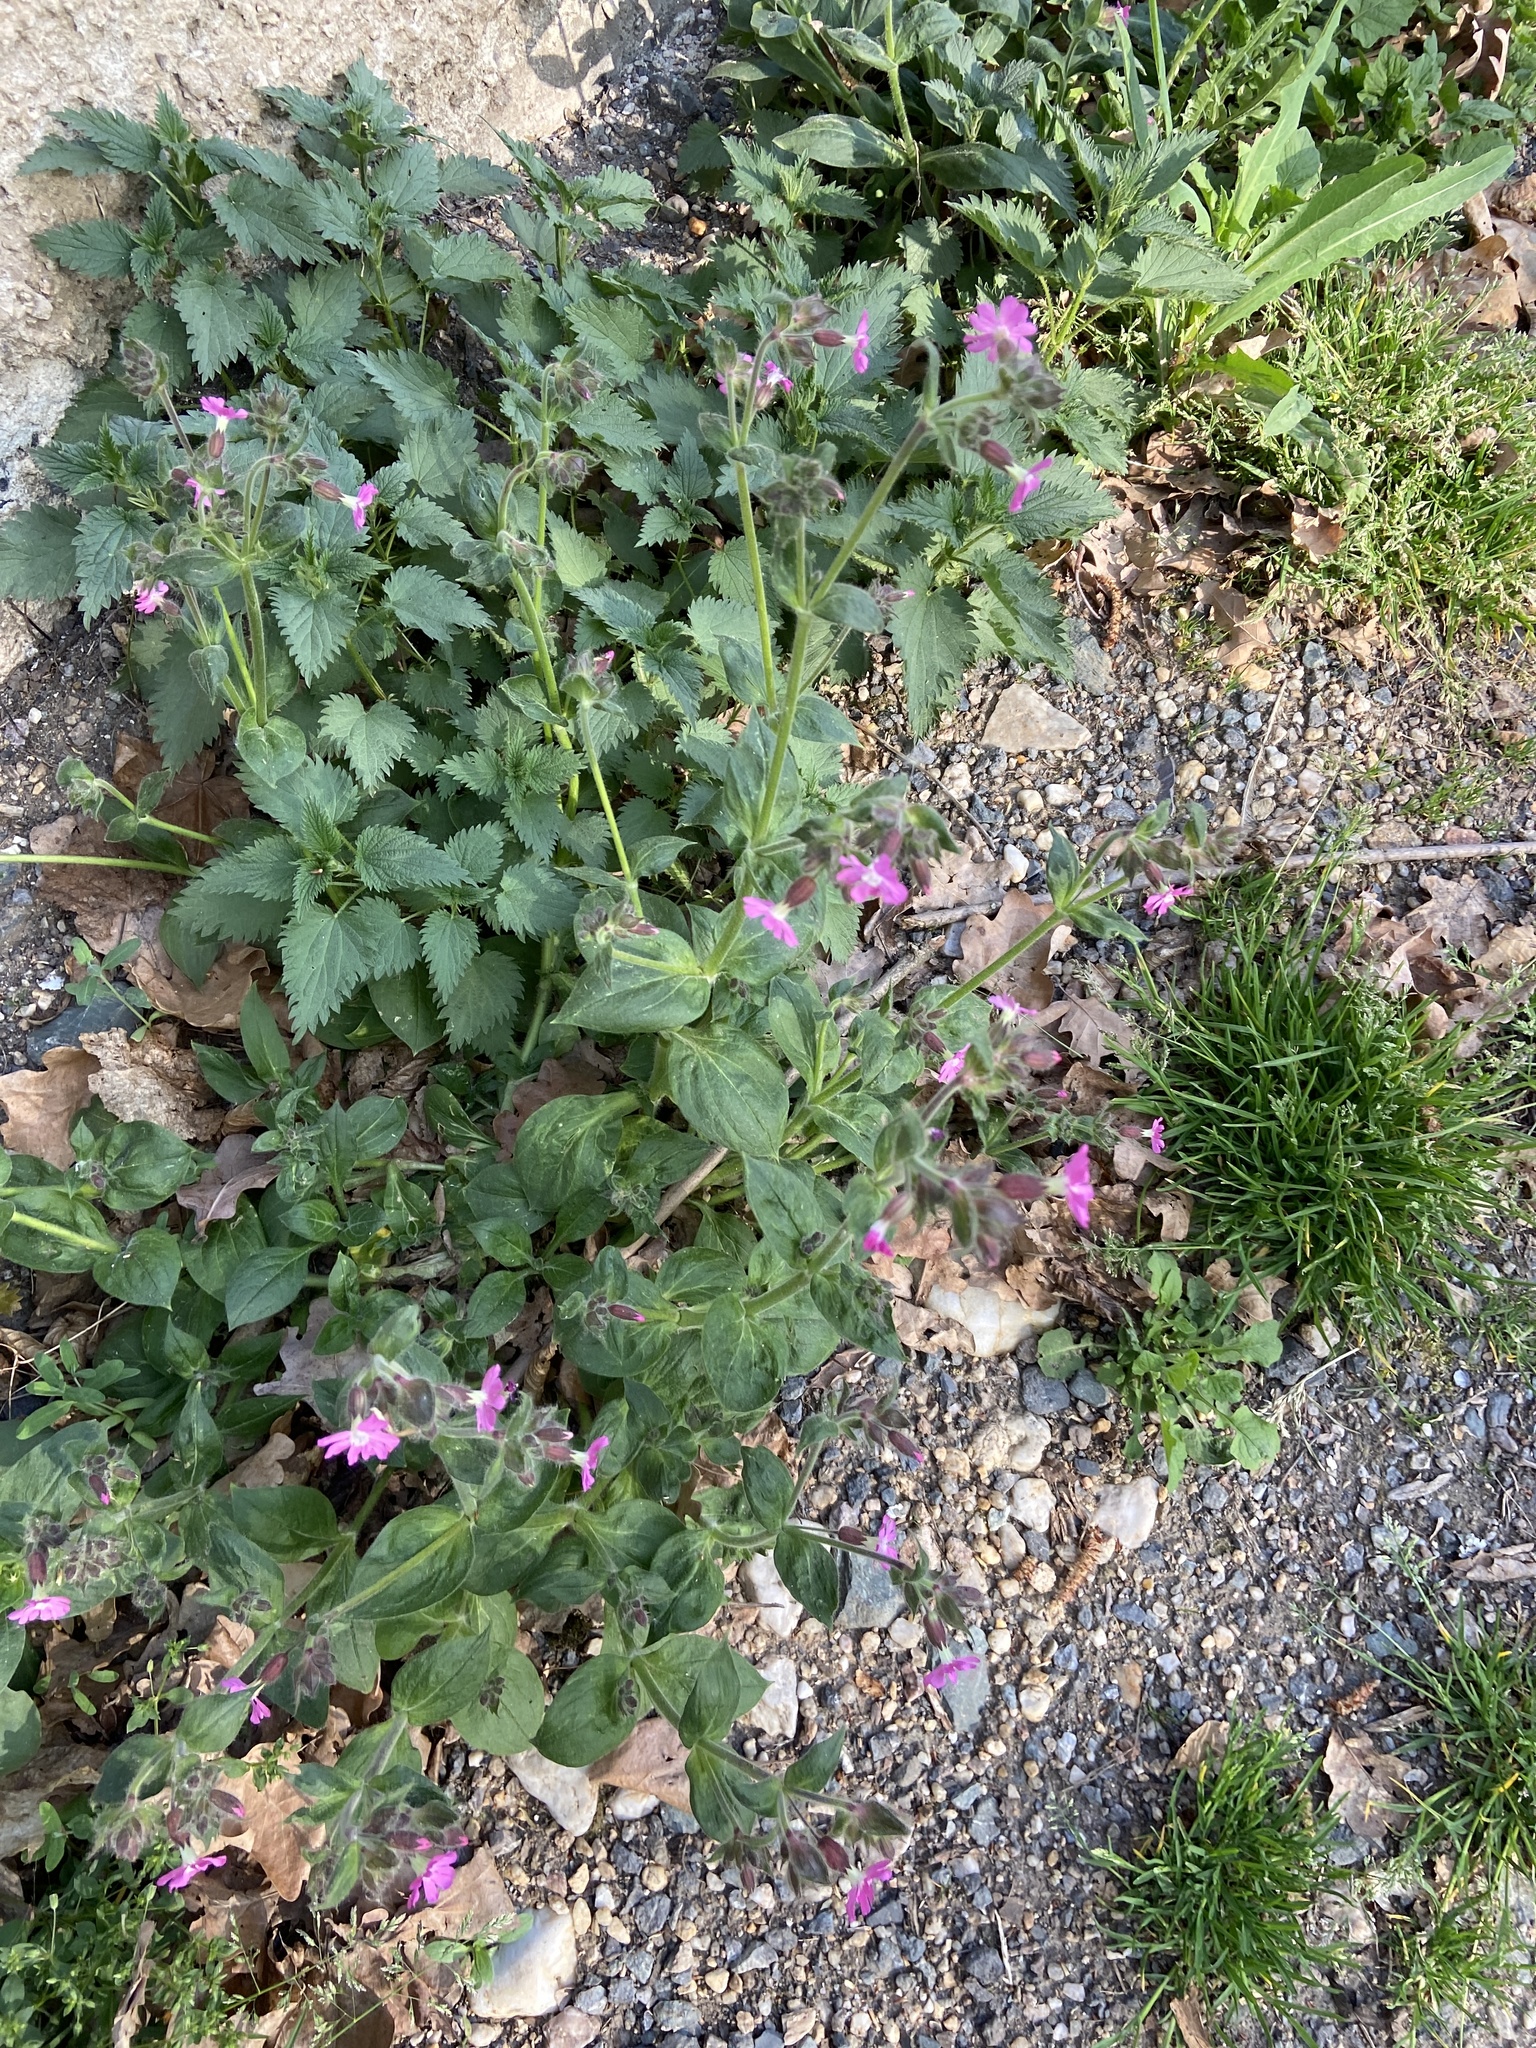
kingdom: Plantae
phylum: Tracheophyta
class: Magnoliopsida
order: Caryophyllales
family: Caryophyllaceae
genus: Silene
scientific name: Silene dioica
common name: Red campion
